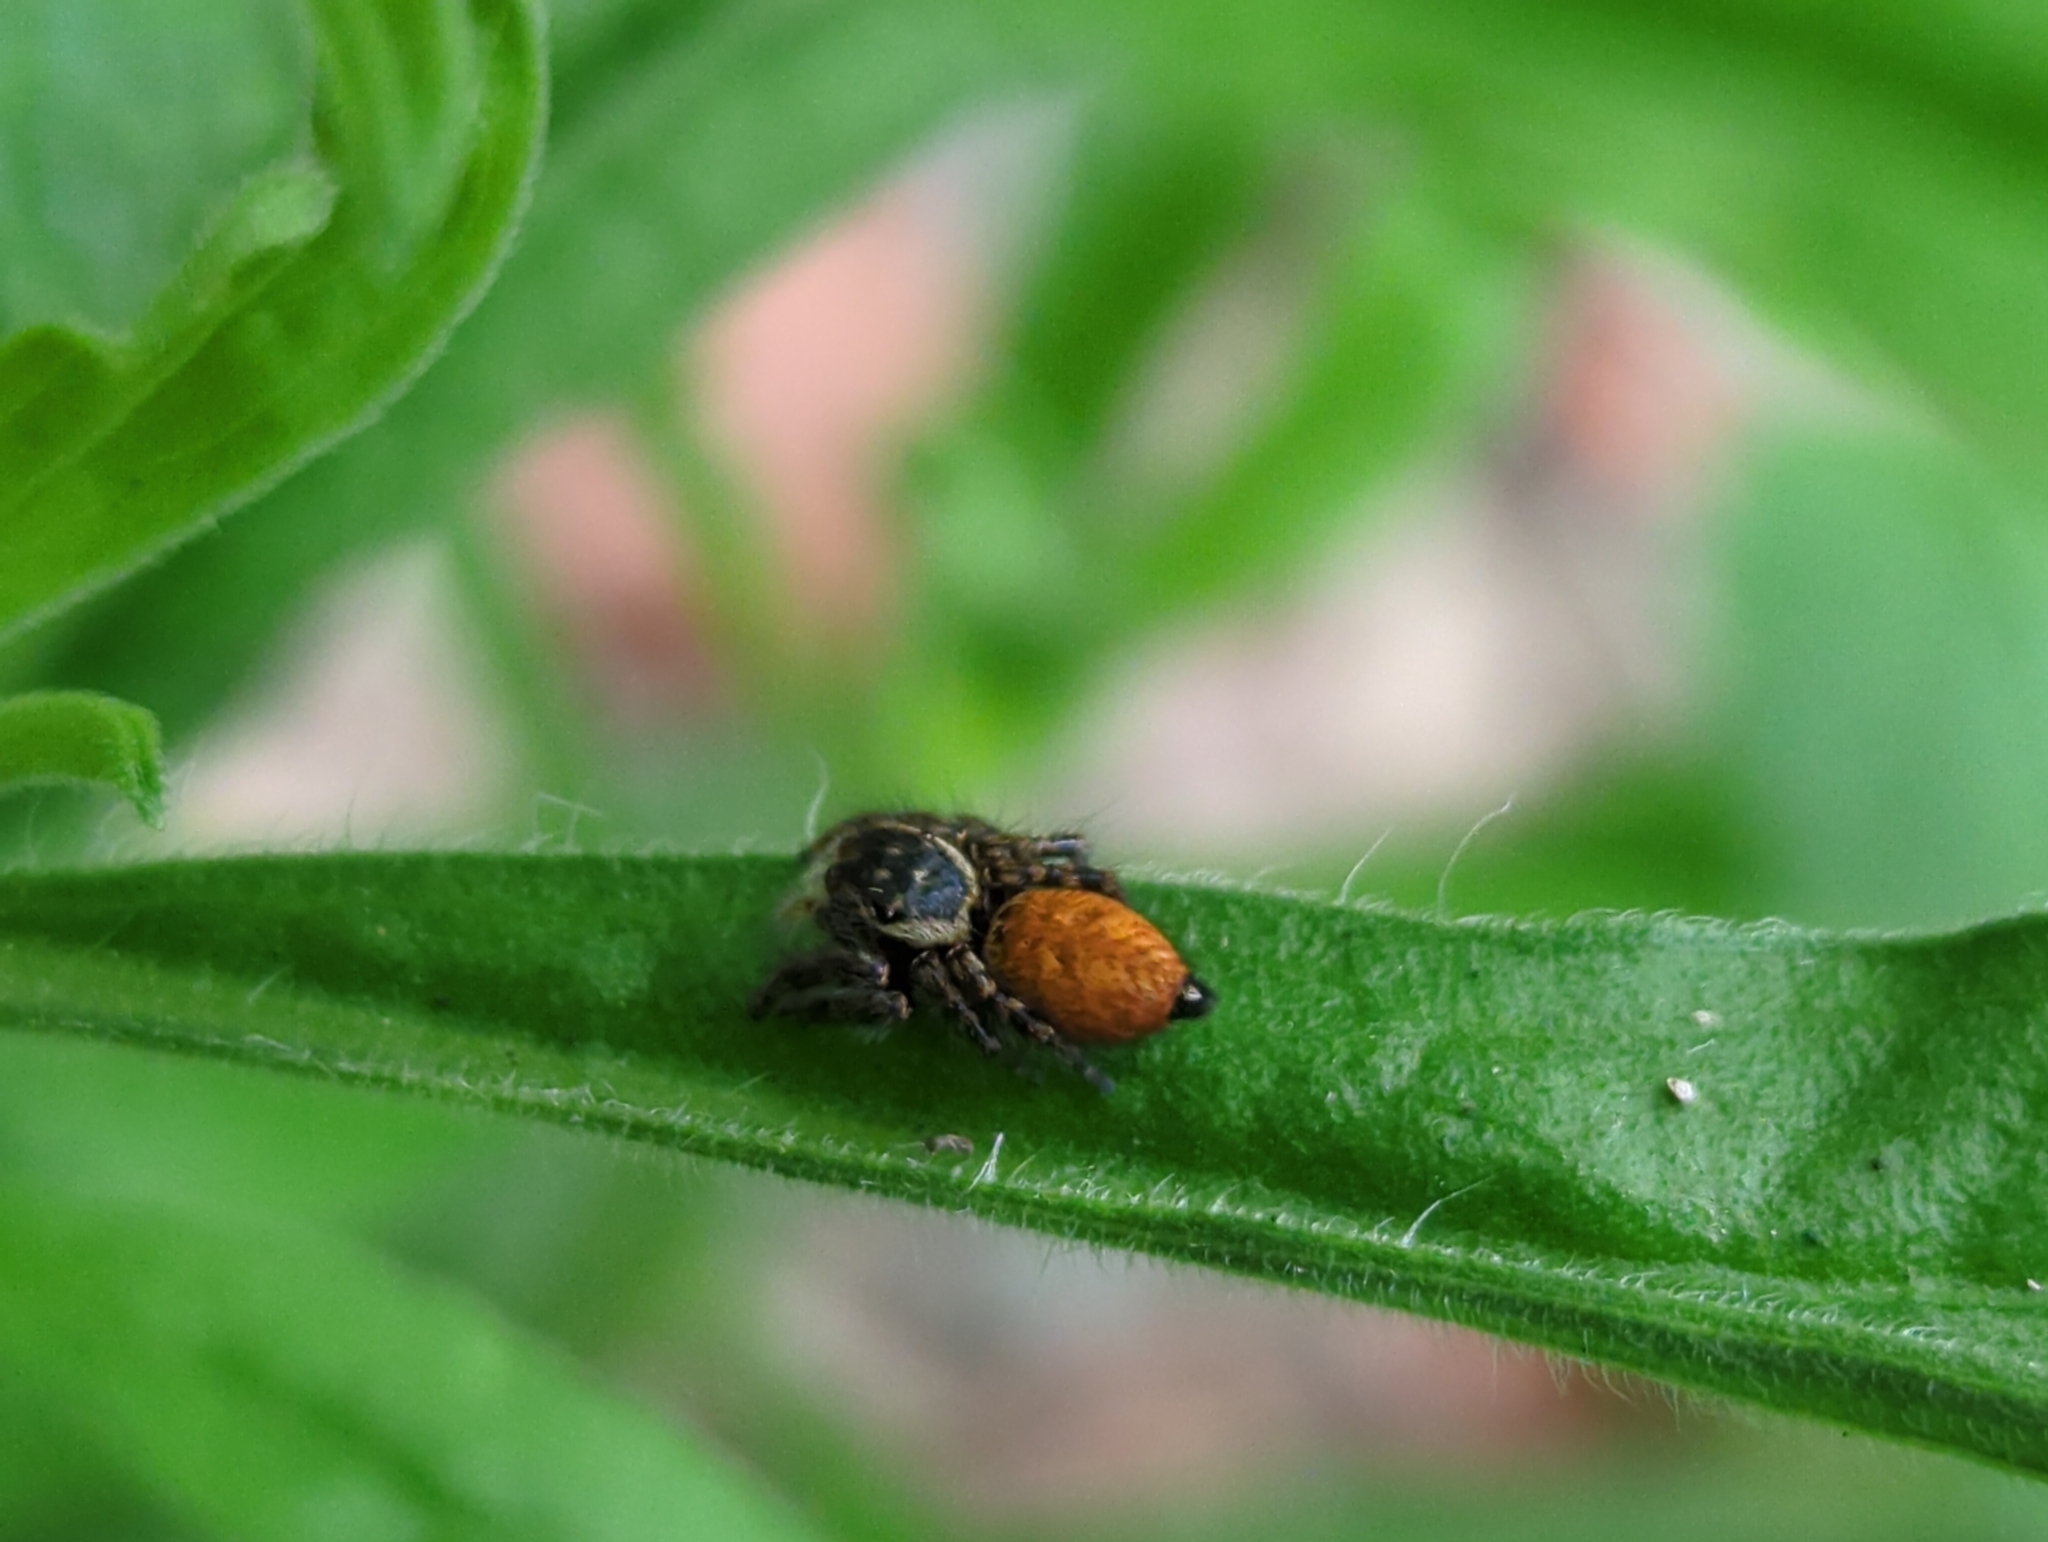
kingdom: Animalia
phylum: Arthropoda
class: Arachnida
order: Araneae
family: Salticidae
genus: Carrhotus
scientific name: Carrhotus xanthogramma
